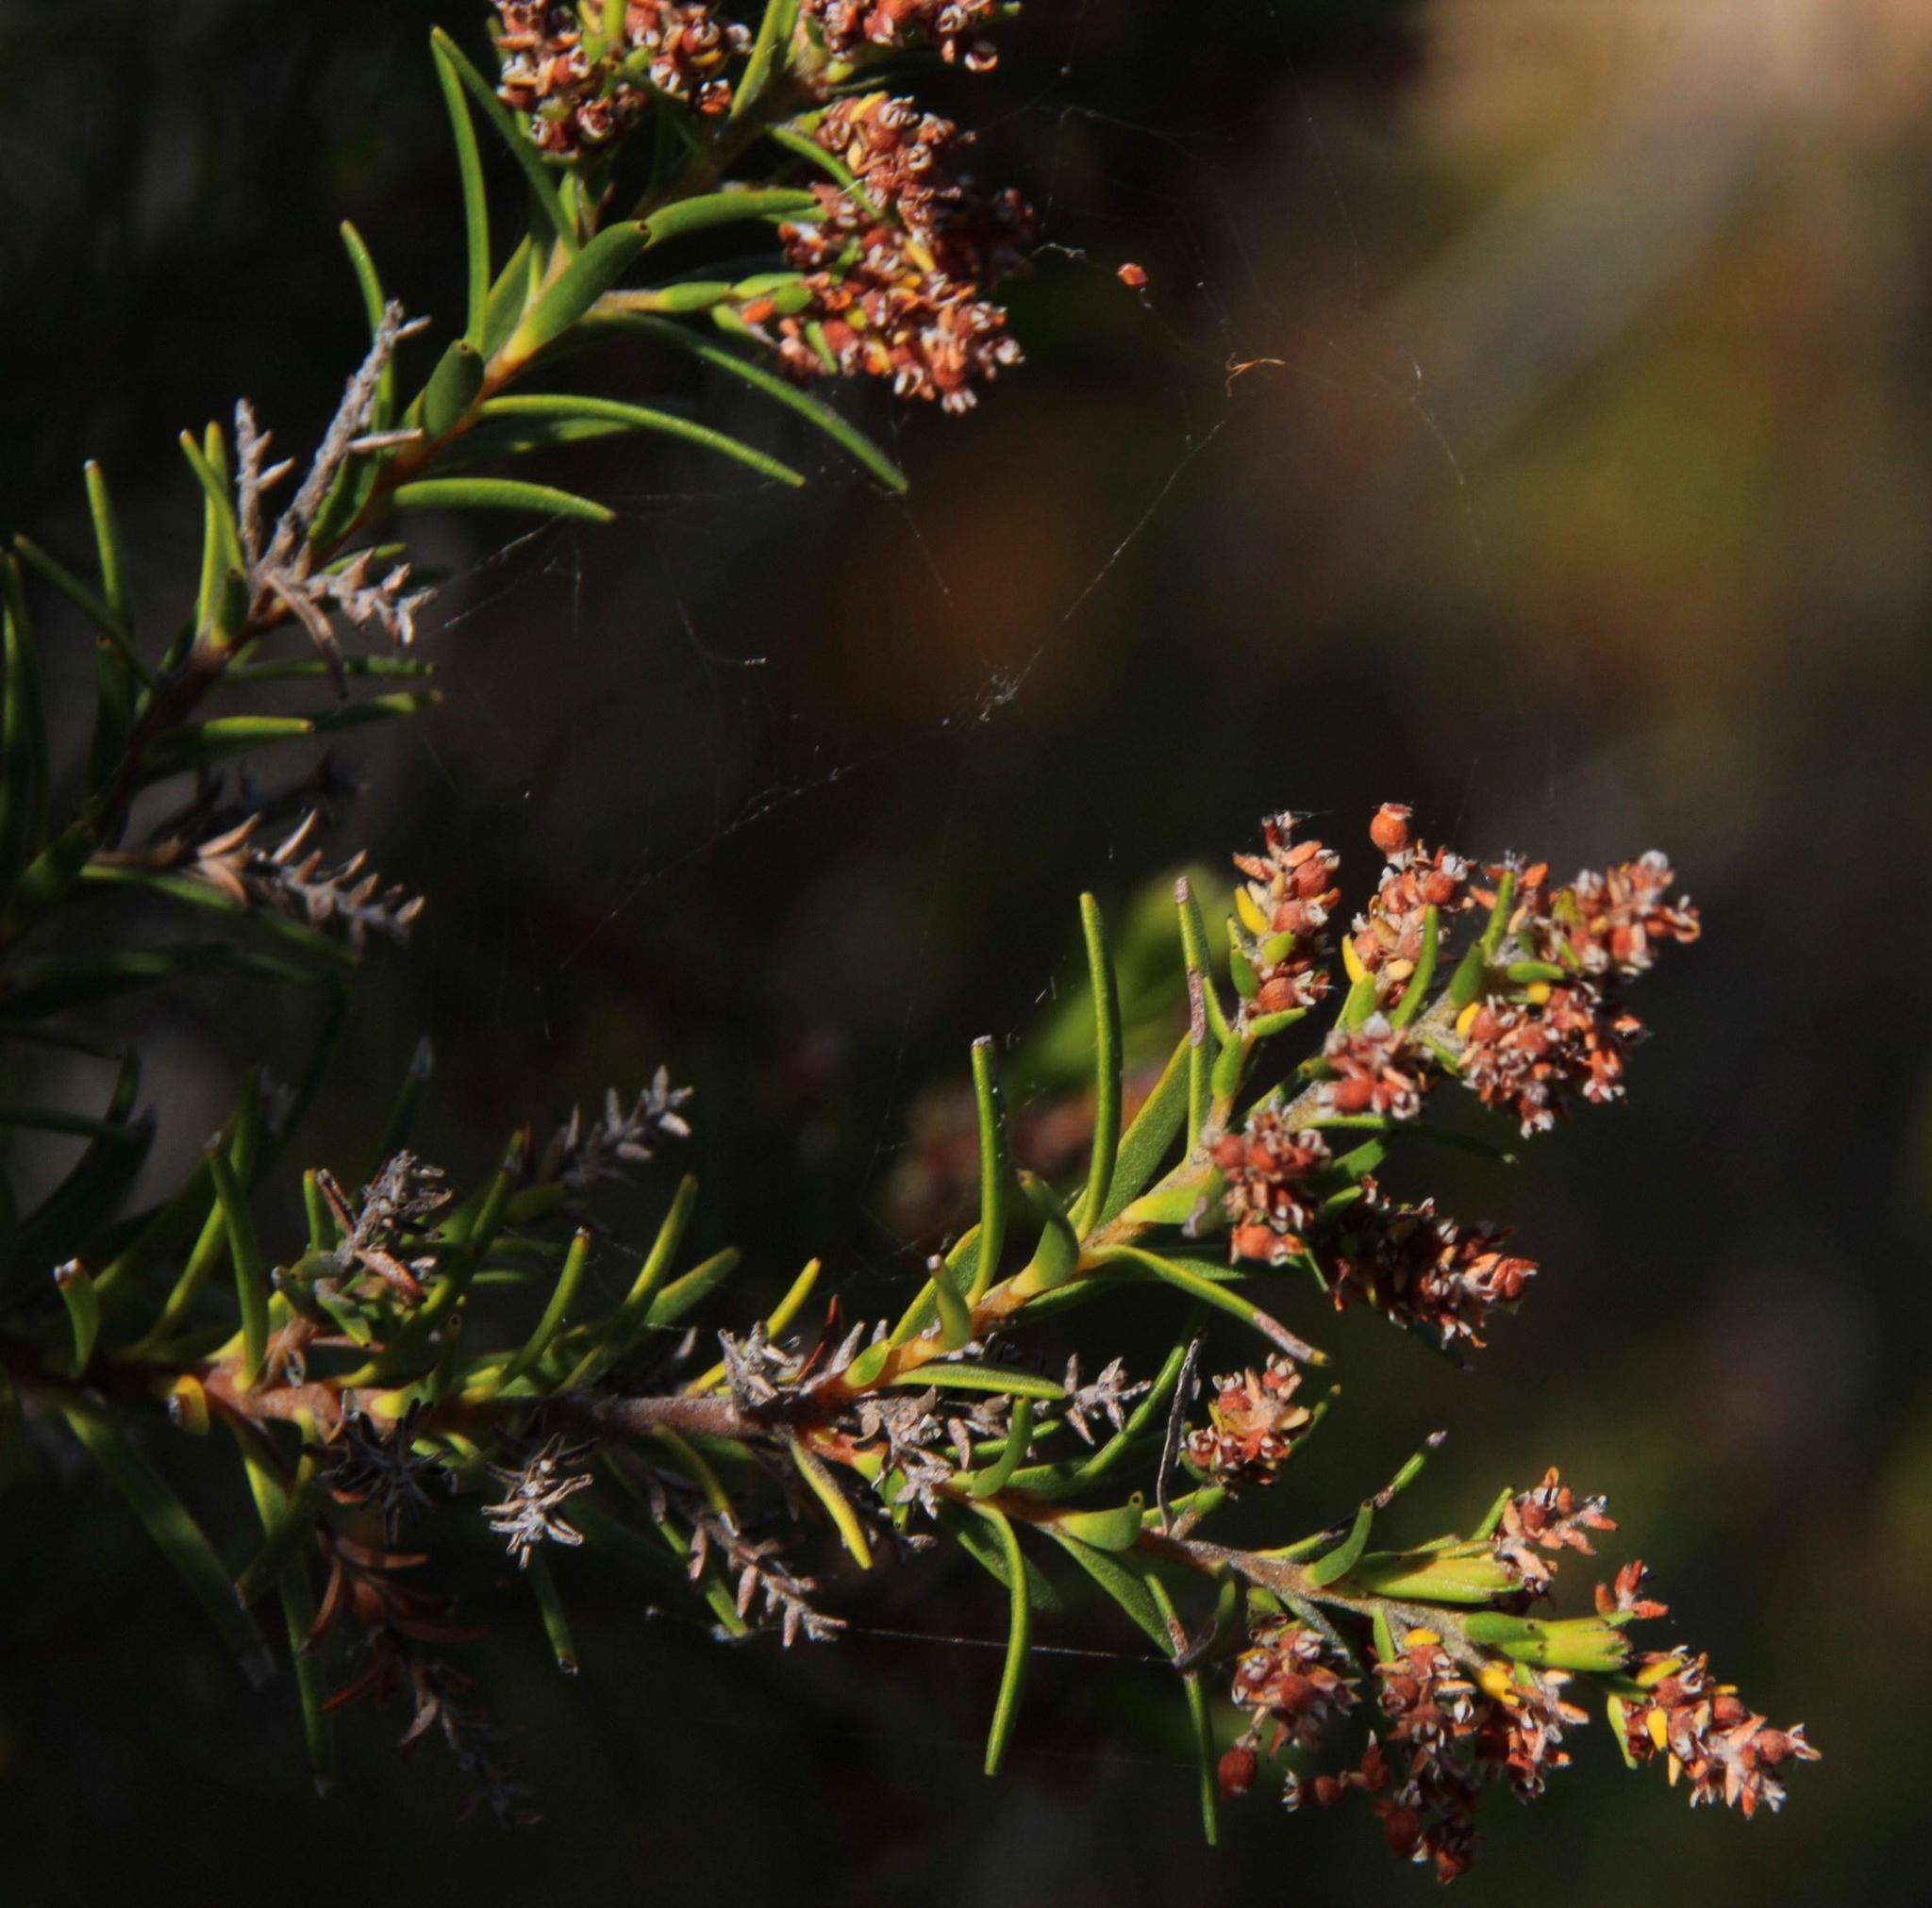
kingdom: Plantae
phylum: Tracheophyta
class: Magnoliopsida
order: Bruniales
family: Bruniaceae
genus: Brunia
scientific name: Brunia africana
